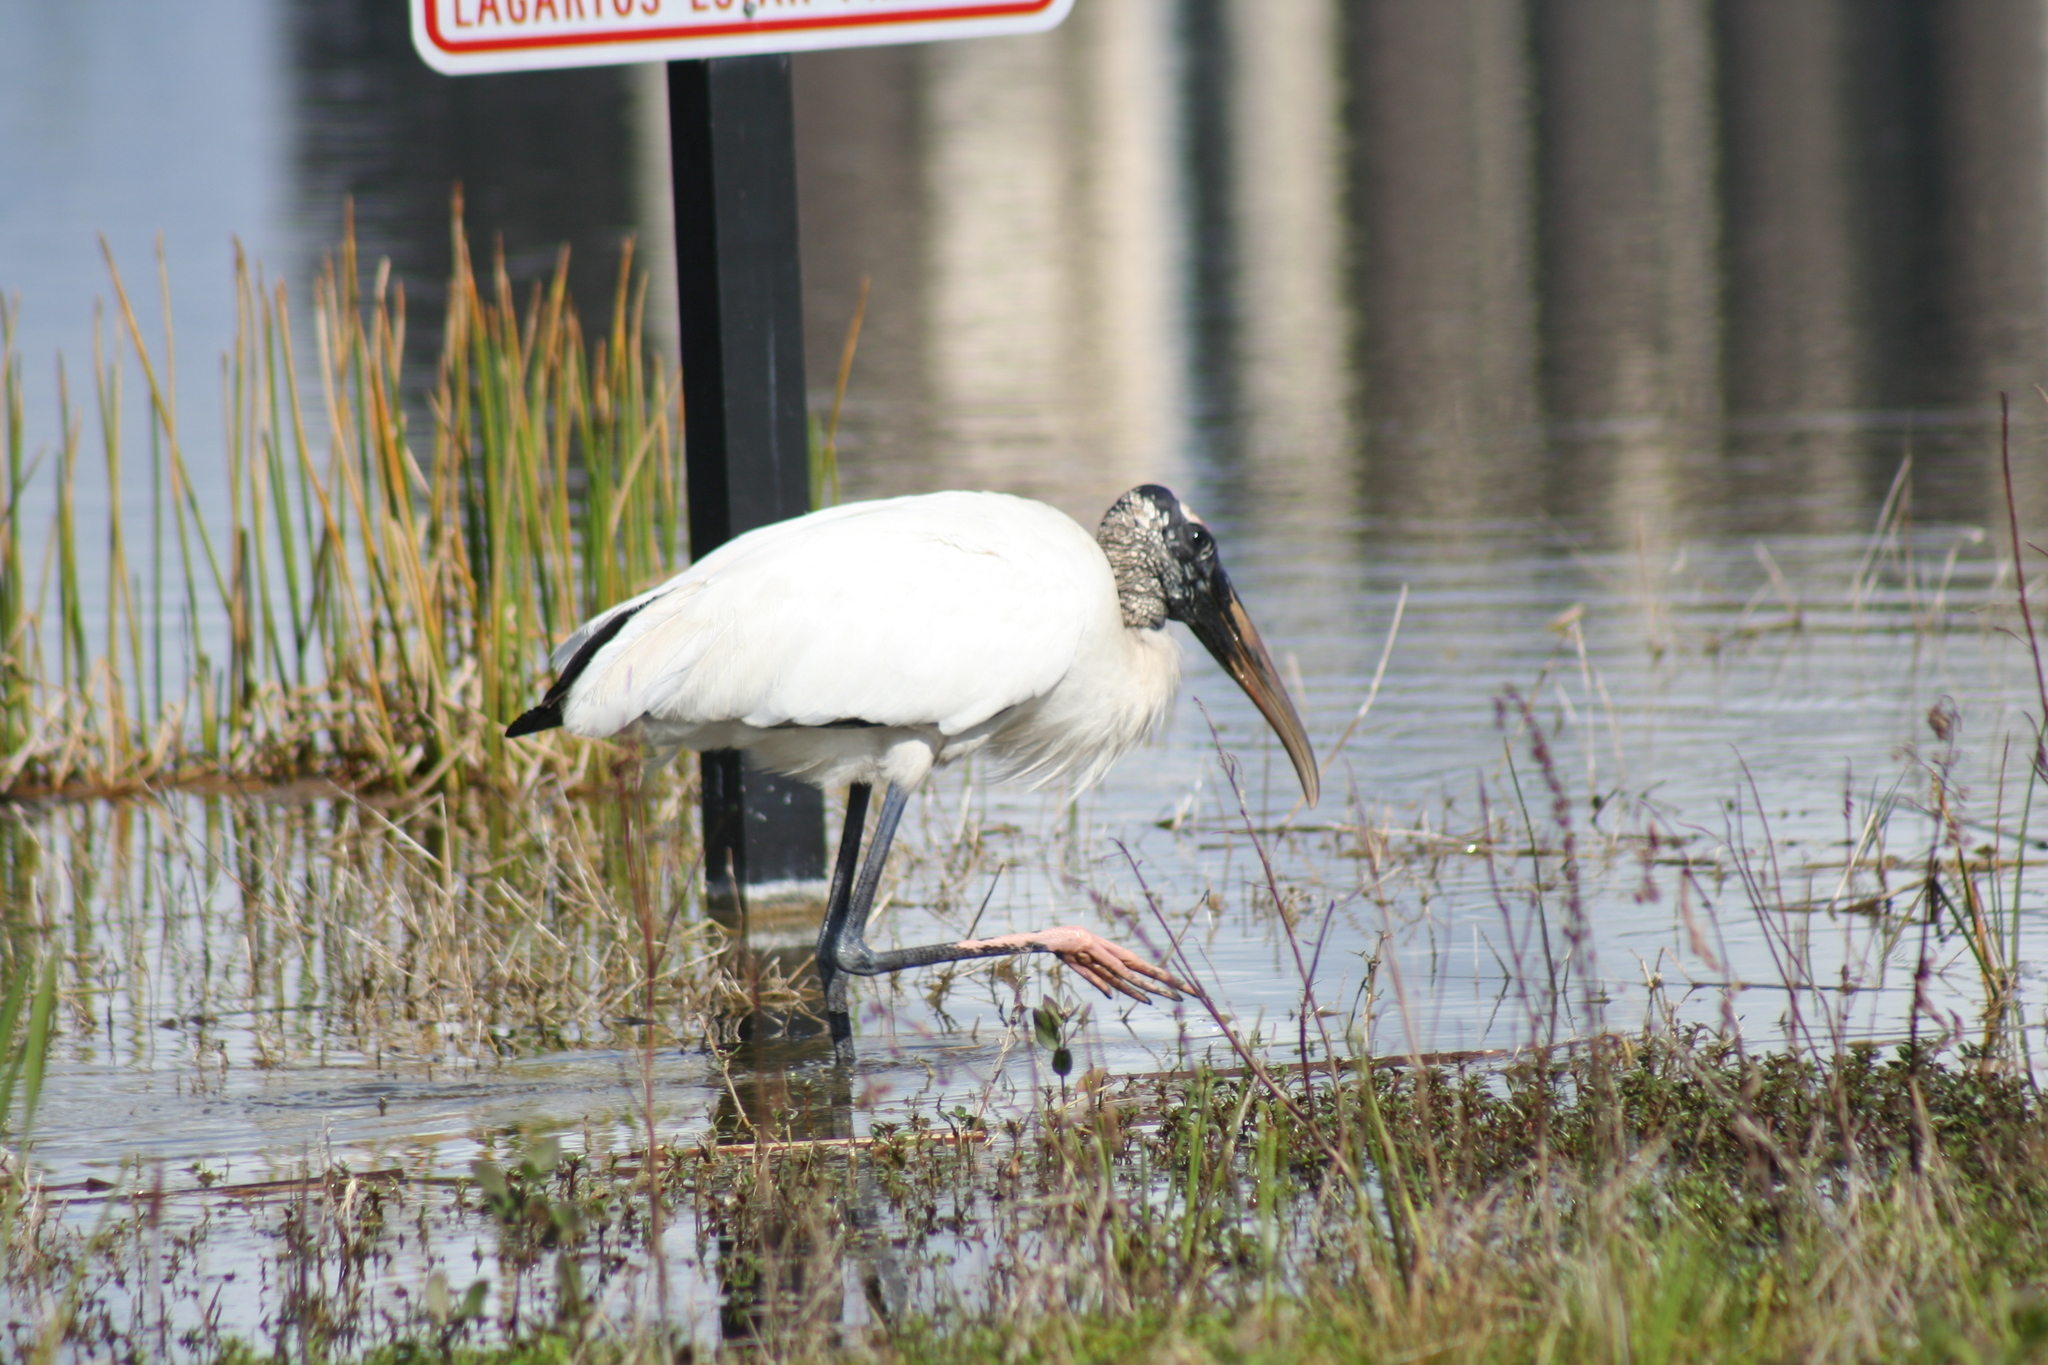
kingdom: Animalia
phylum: Chordata
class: Aves
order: Ciconiiformes
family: Ciconiidae
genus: Mycteria
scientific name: Mycteria americana
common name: Wood stork
